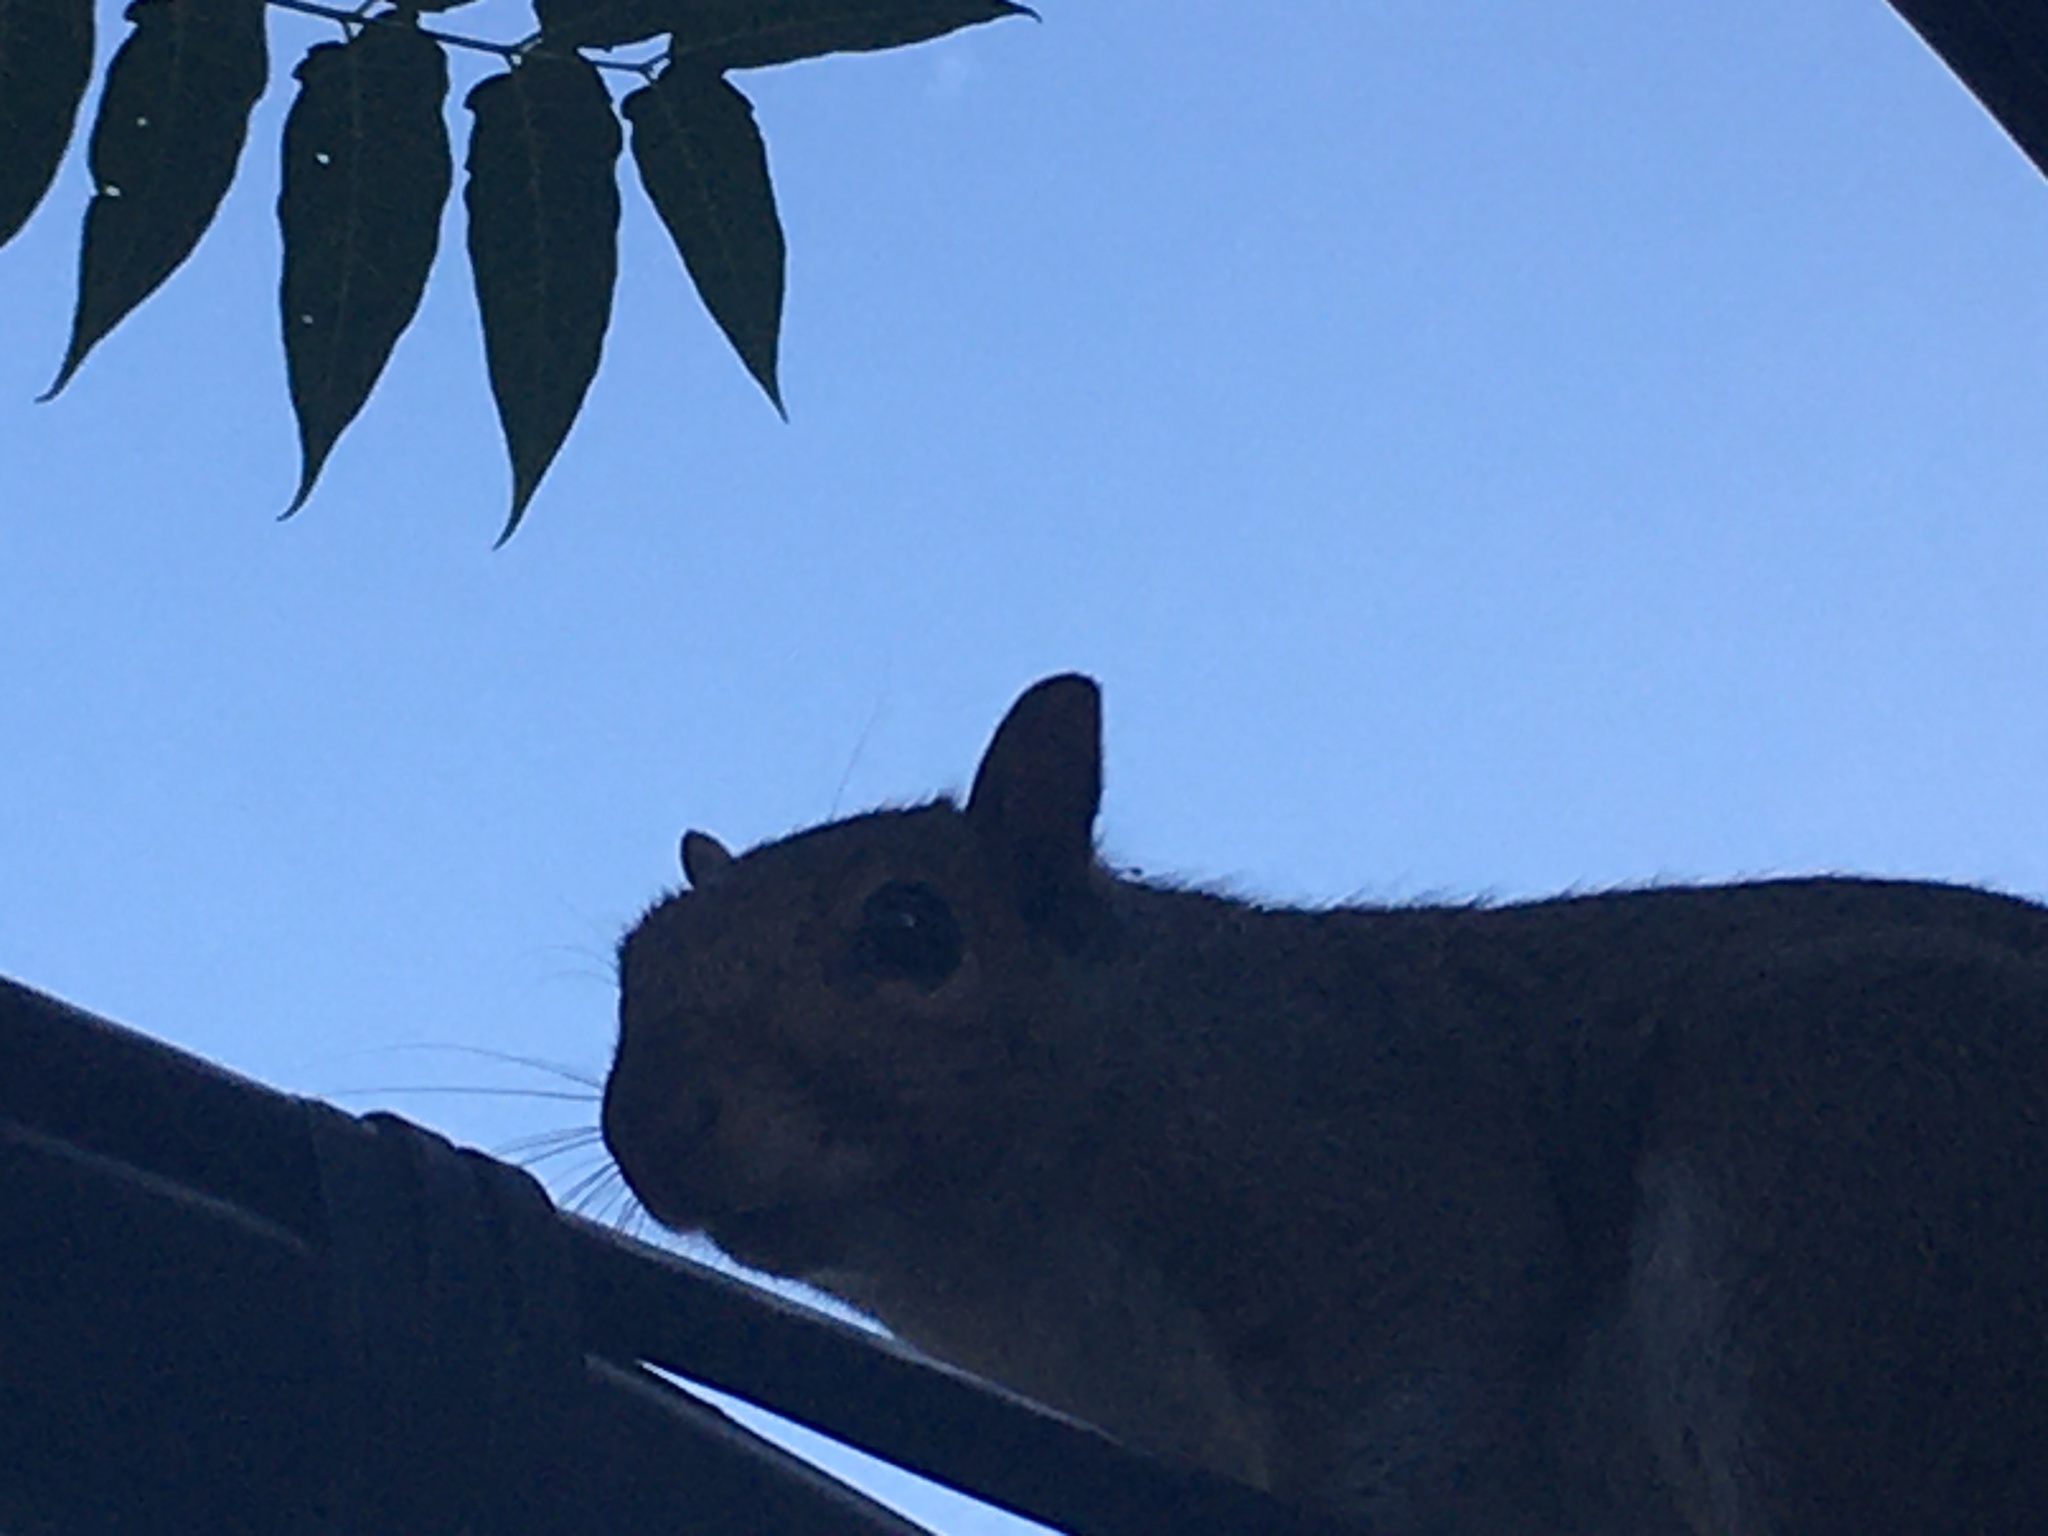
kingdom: Animalia
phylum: Chordata
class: Mammalia
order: Rodentia
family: Sciuridae
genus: Sciurus
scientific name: Sciurus carolinensis
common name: Eastern gray squirrel
